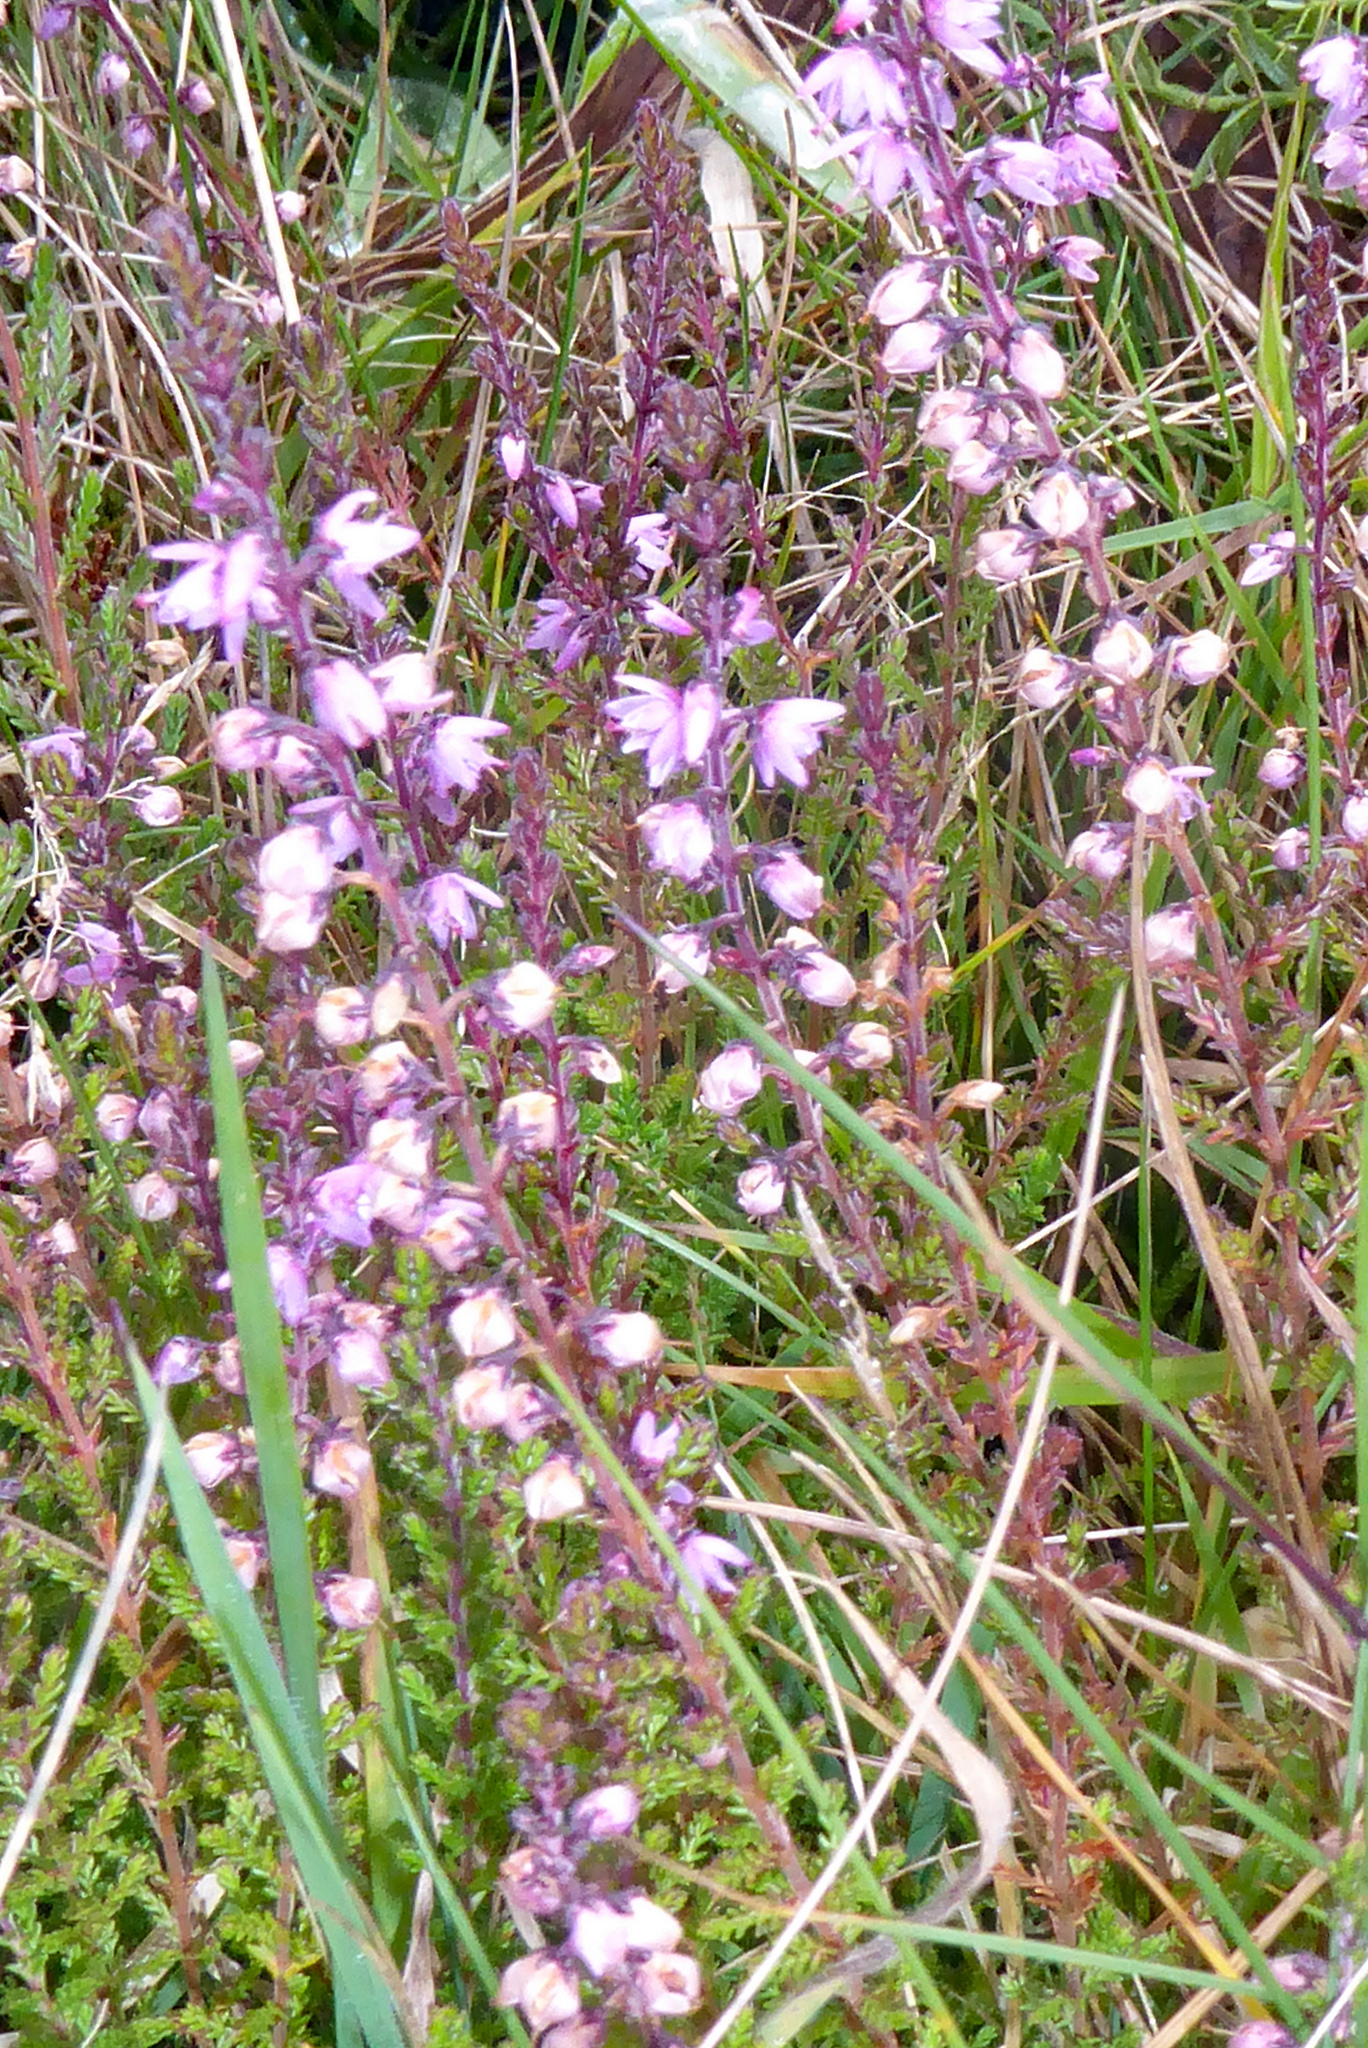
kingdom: Plantae
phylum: Tracheophyta
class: Magnoliopsida
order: Ericales
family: Ericaceae
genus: Calluna
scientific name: Calluna vulgaris
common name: Heather
